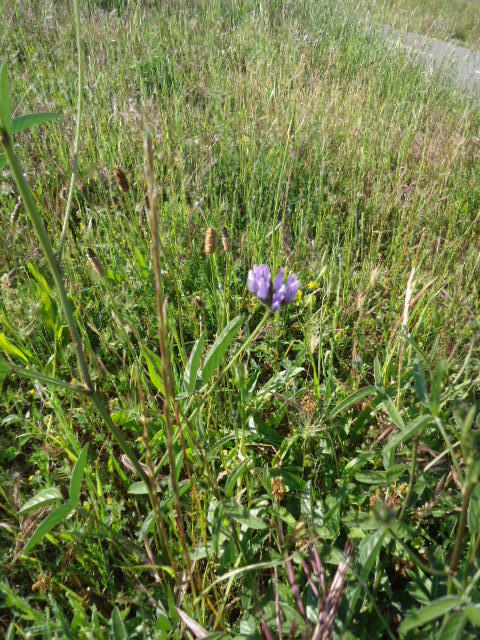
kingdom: Plantae
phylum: Tracheophyta
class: Magnoliopsida
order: Fabales
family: Fabaceae
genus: Bituminaria
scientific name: Bituminaria bituminosa
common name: Arabian pea
